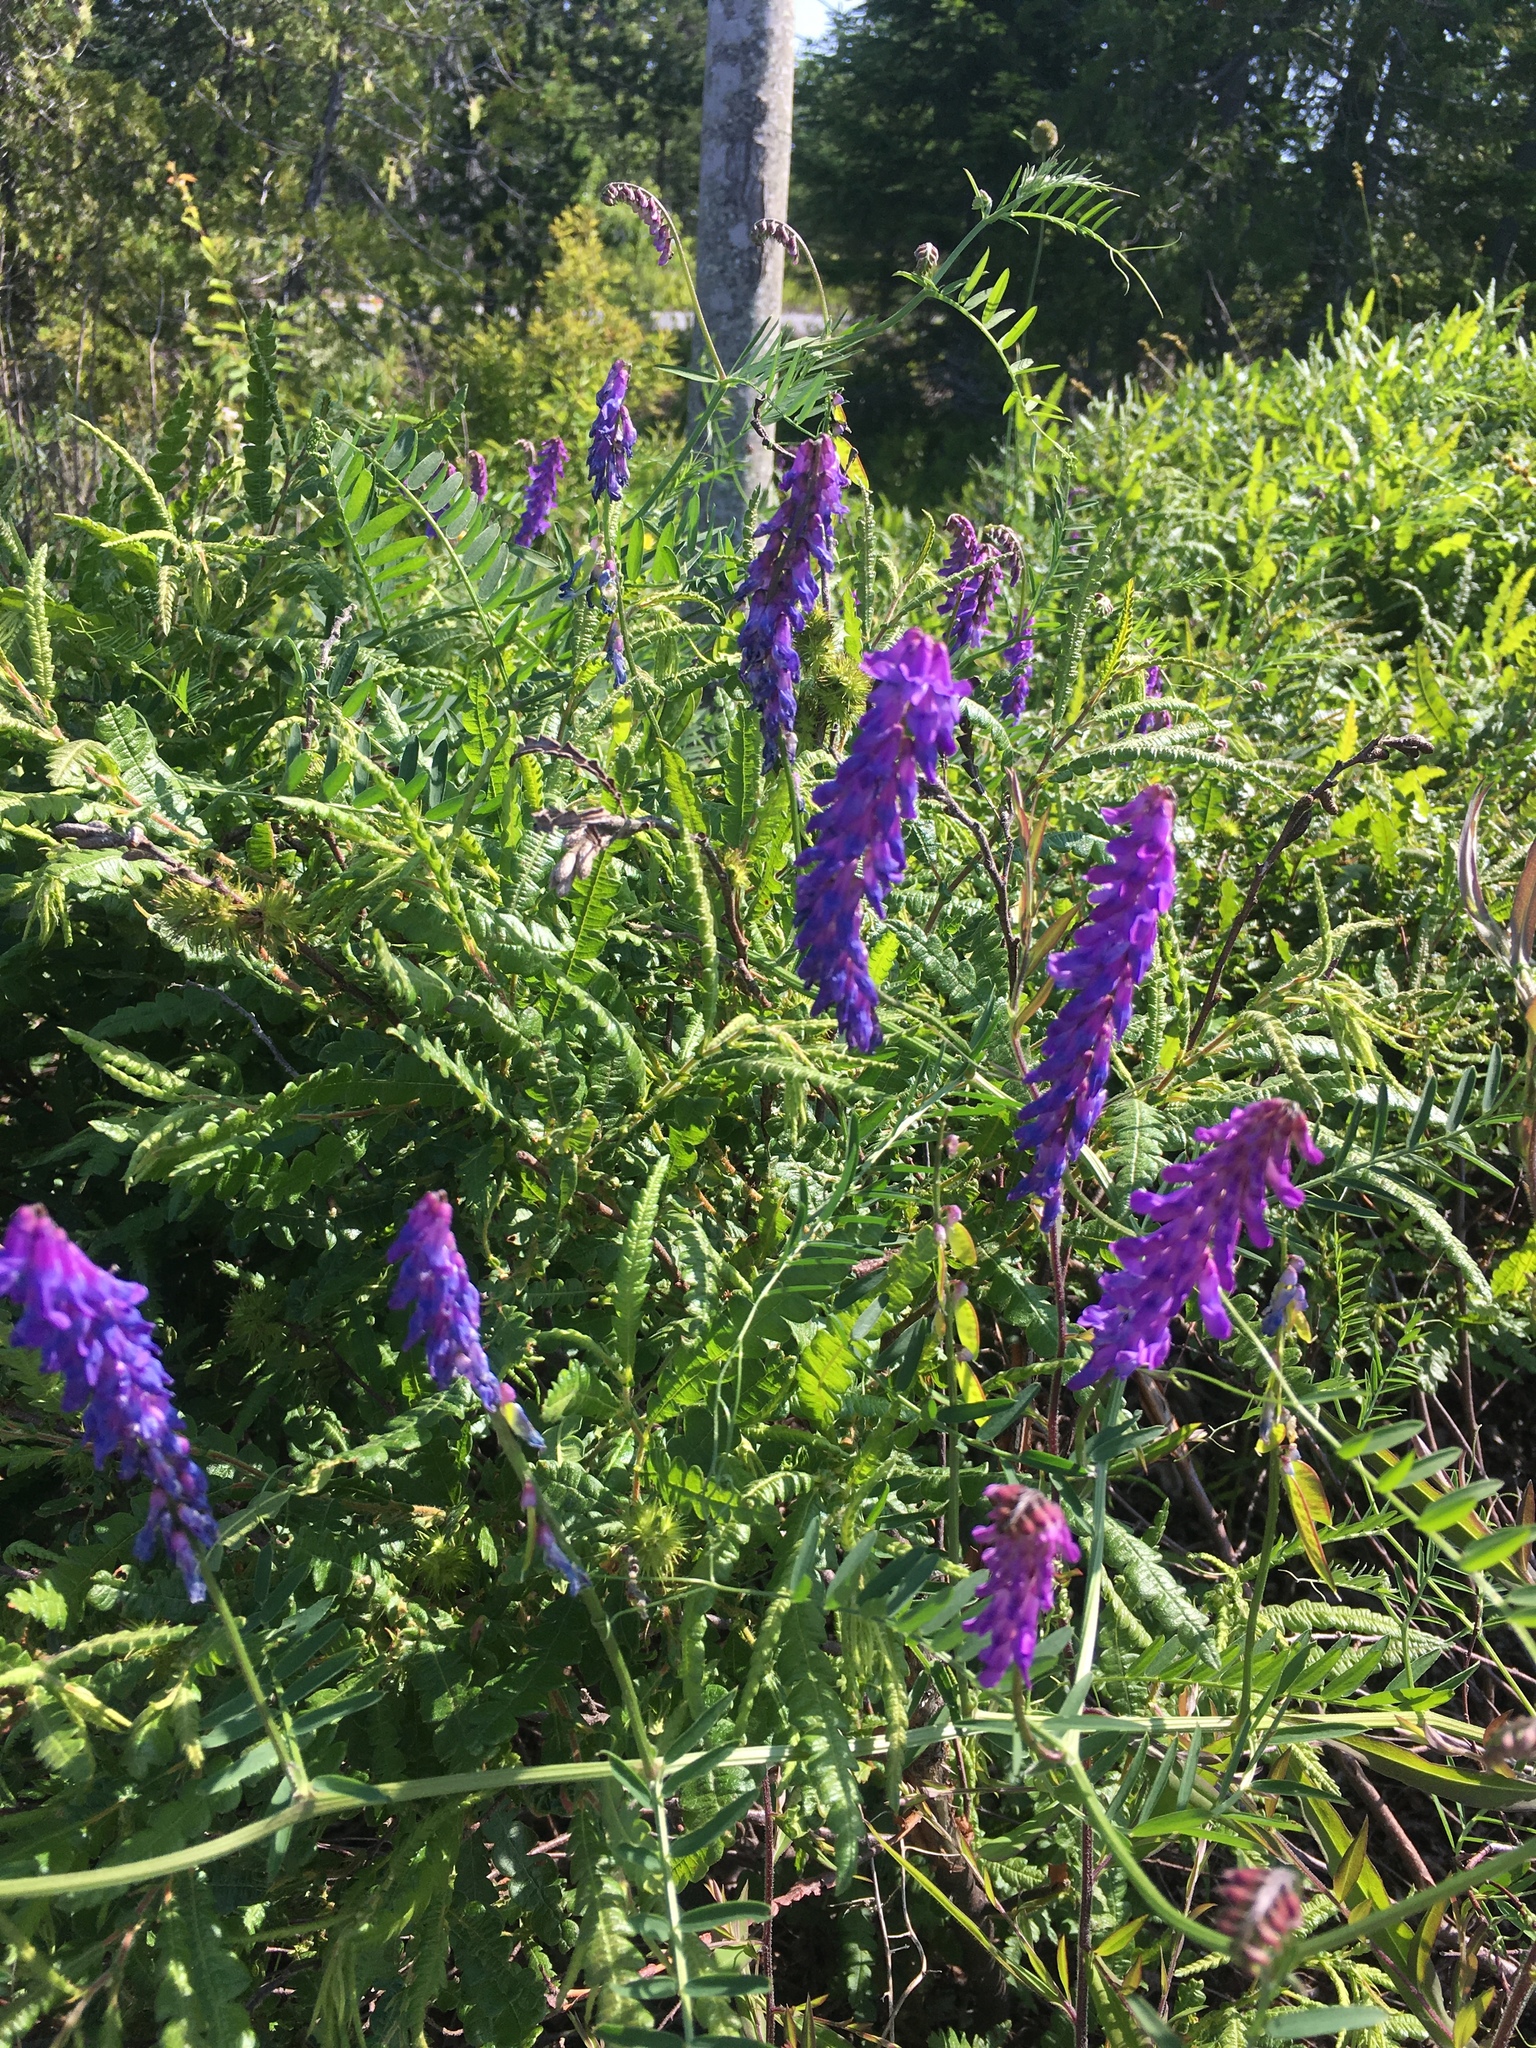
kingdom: Plantae
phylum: Tracheophyta
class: Magnoliopsida
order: Fabales
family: Fabaceae
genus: Vicia
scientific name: Vicia cracca
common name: Bird vetch
